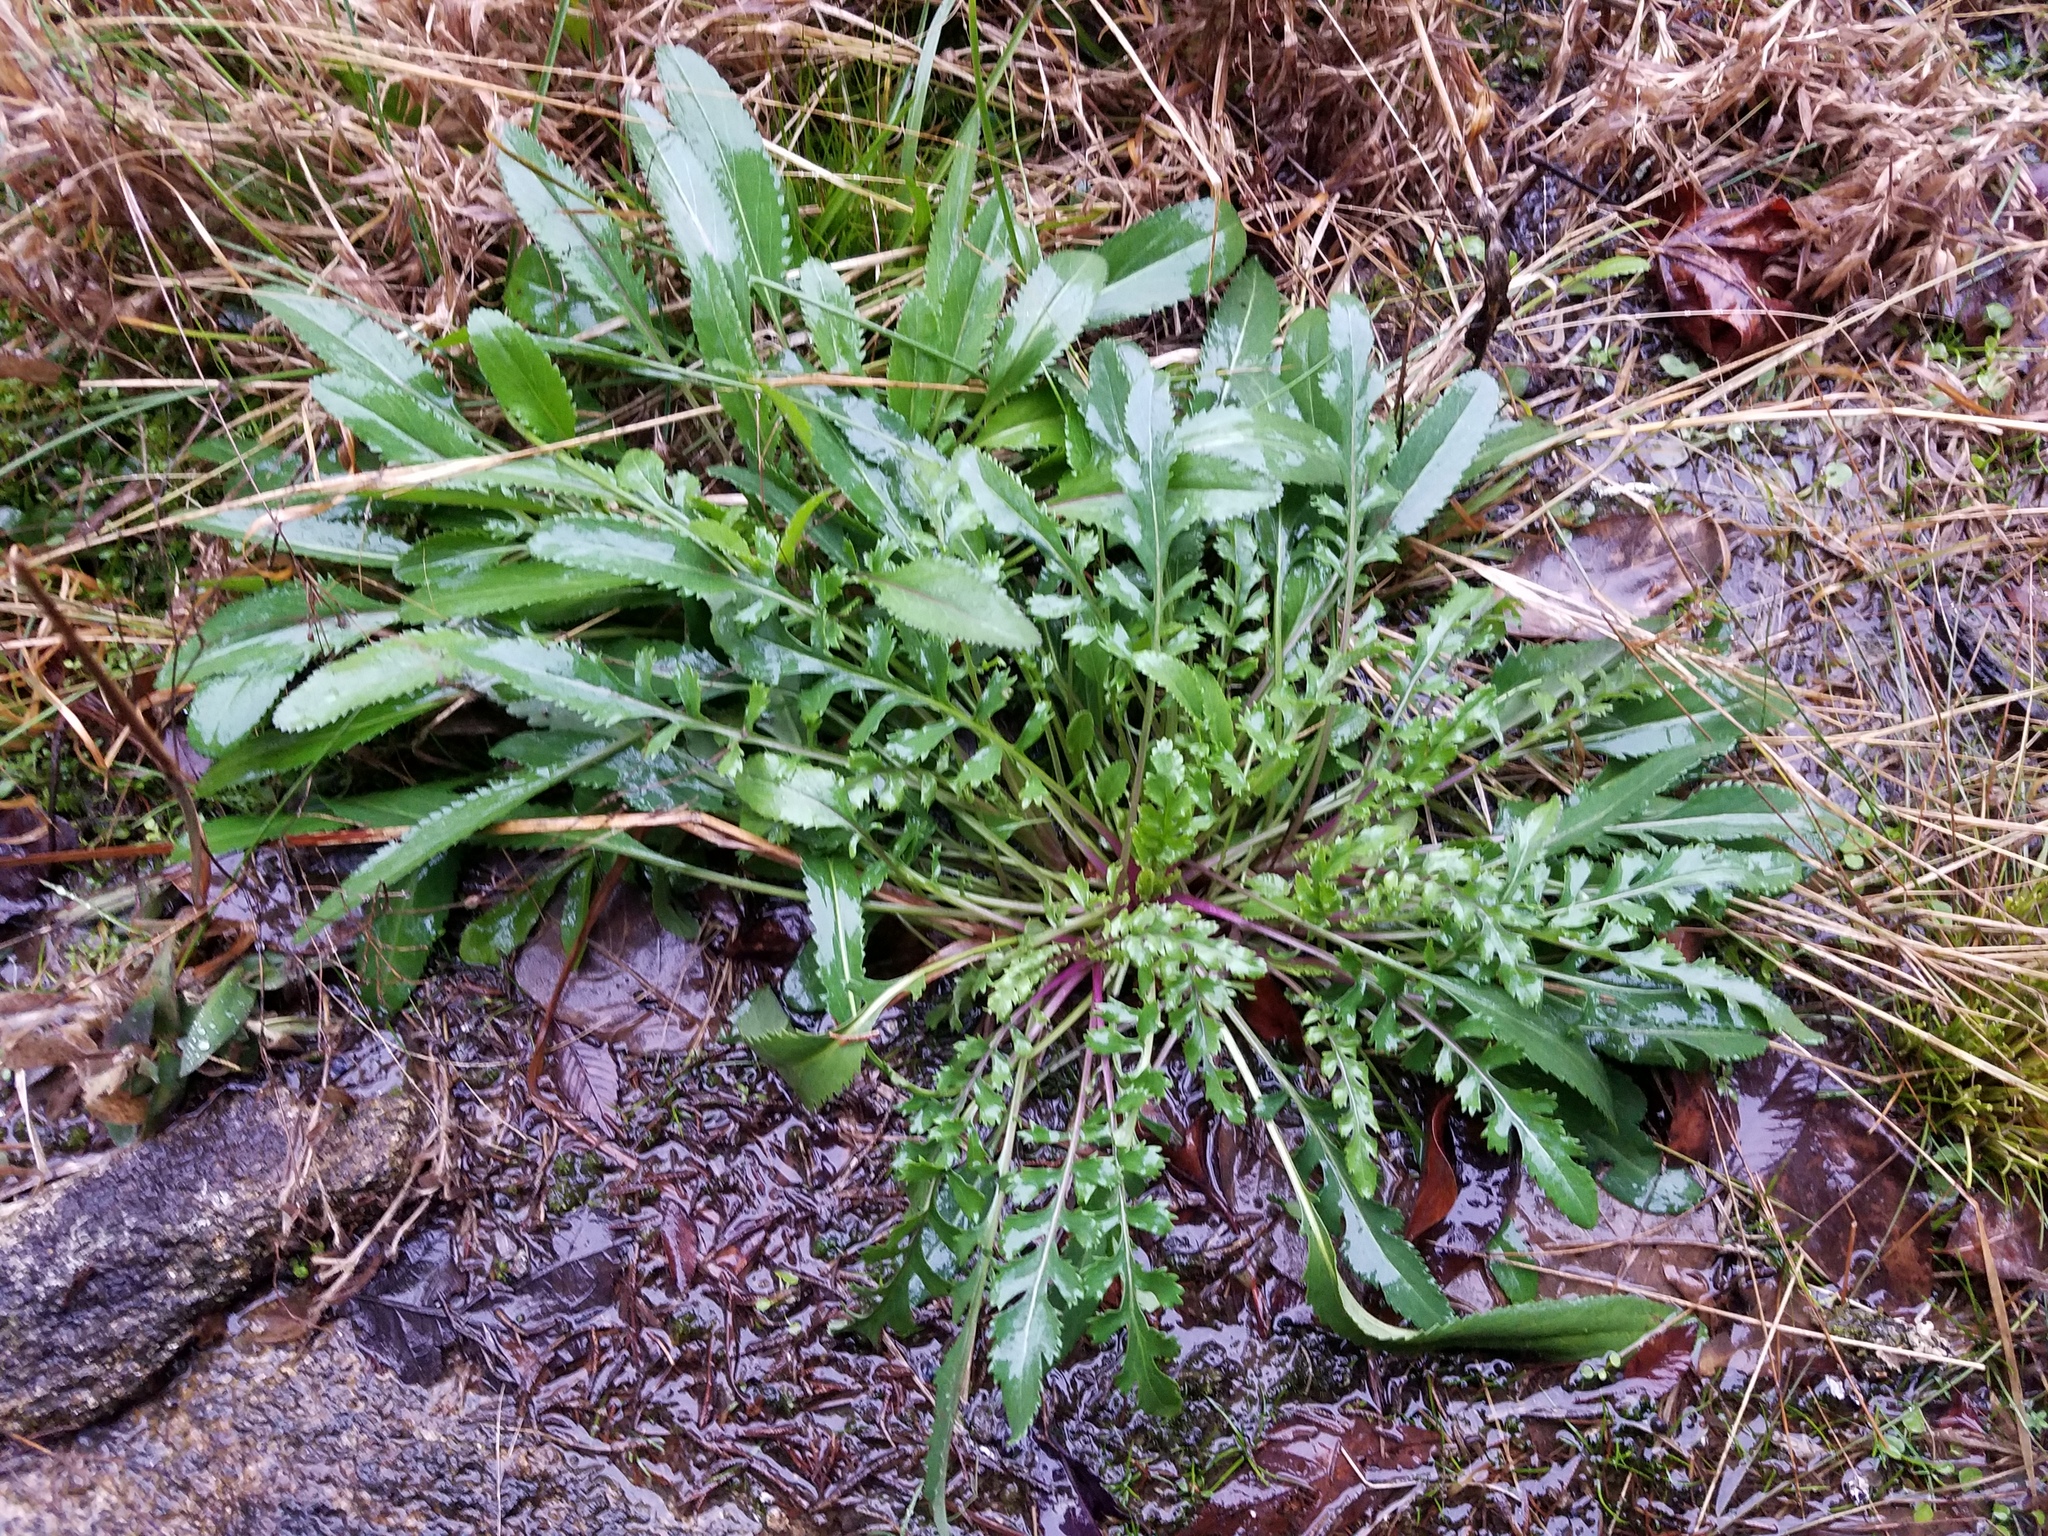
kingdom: Plantae
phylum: Tracheophyta
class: Magnoliopsida
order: Asterales
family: Asteraceae
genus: Packera
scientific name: Packera anonyma
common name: Small ragwort
